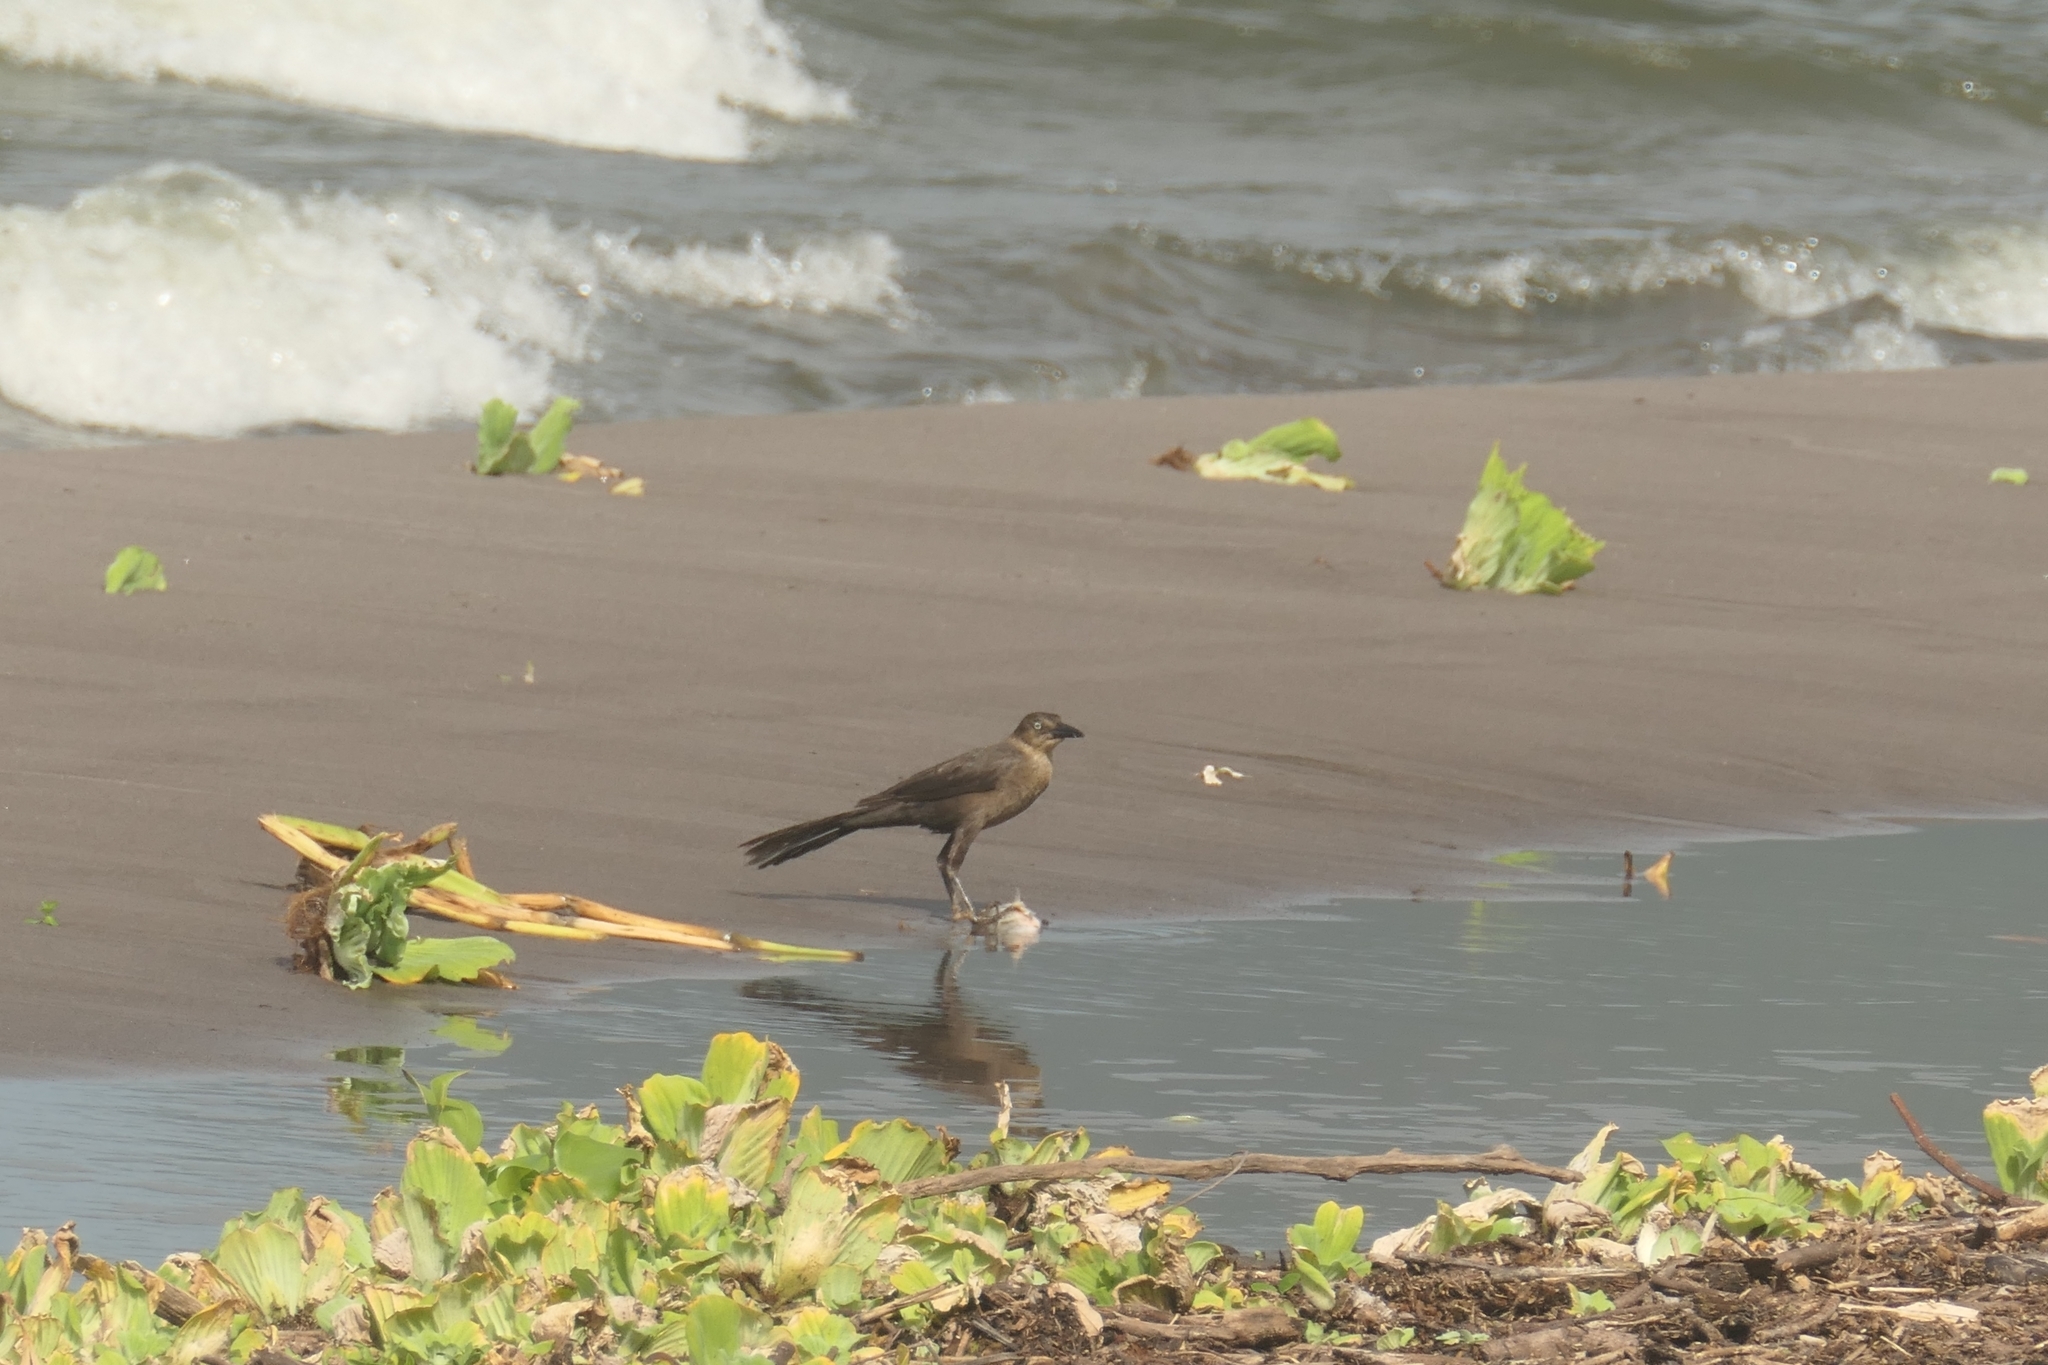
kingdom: Animalia
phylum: Chordata
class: Aves
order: Passeriformes
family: Icteridae
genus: Quiscalus
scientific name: Quiscalus mexicanus
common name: Great-tailed grackle
